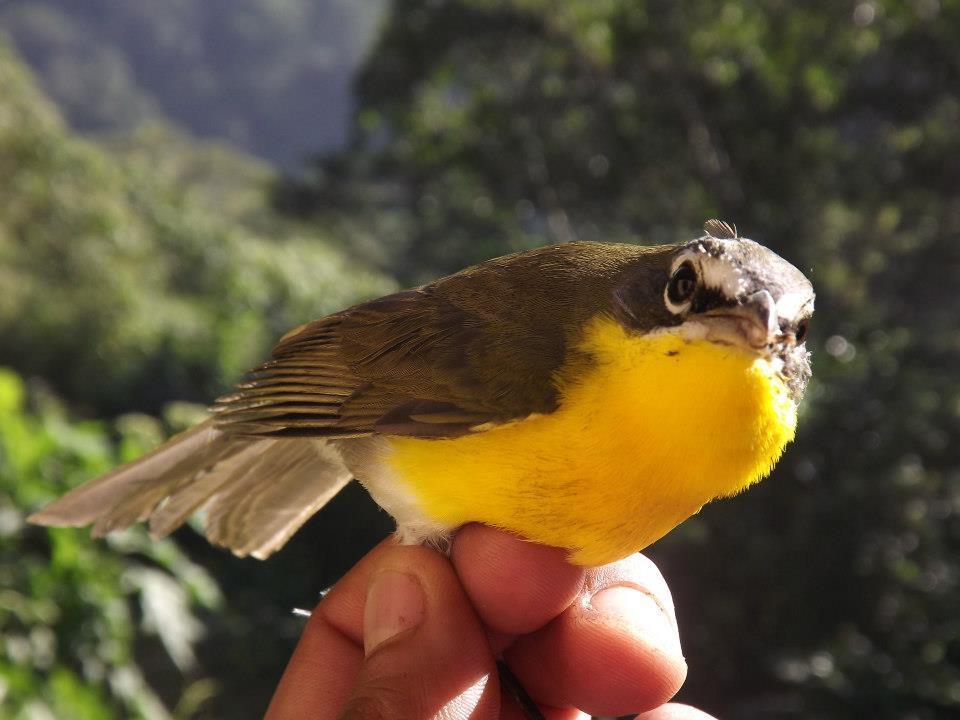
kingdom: Animalia
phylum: Chordata
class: Aves
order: Passeriformes
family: Parulidae
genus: Icteria
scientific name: Icteria virens
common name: Yellow-breasted chat
